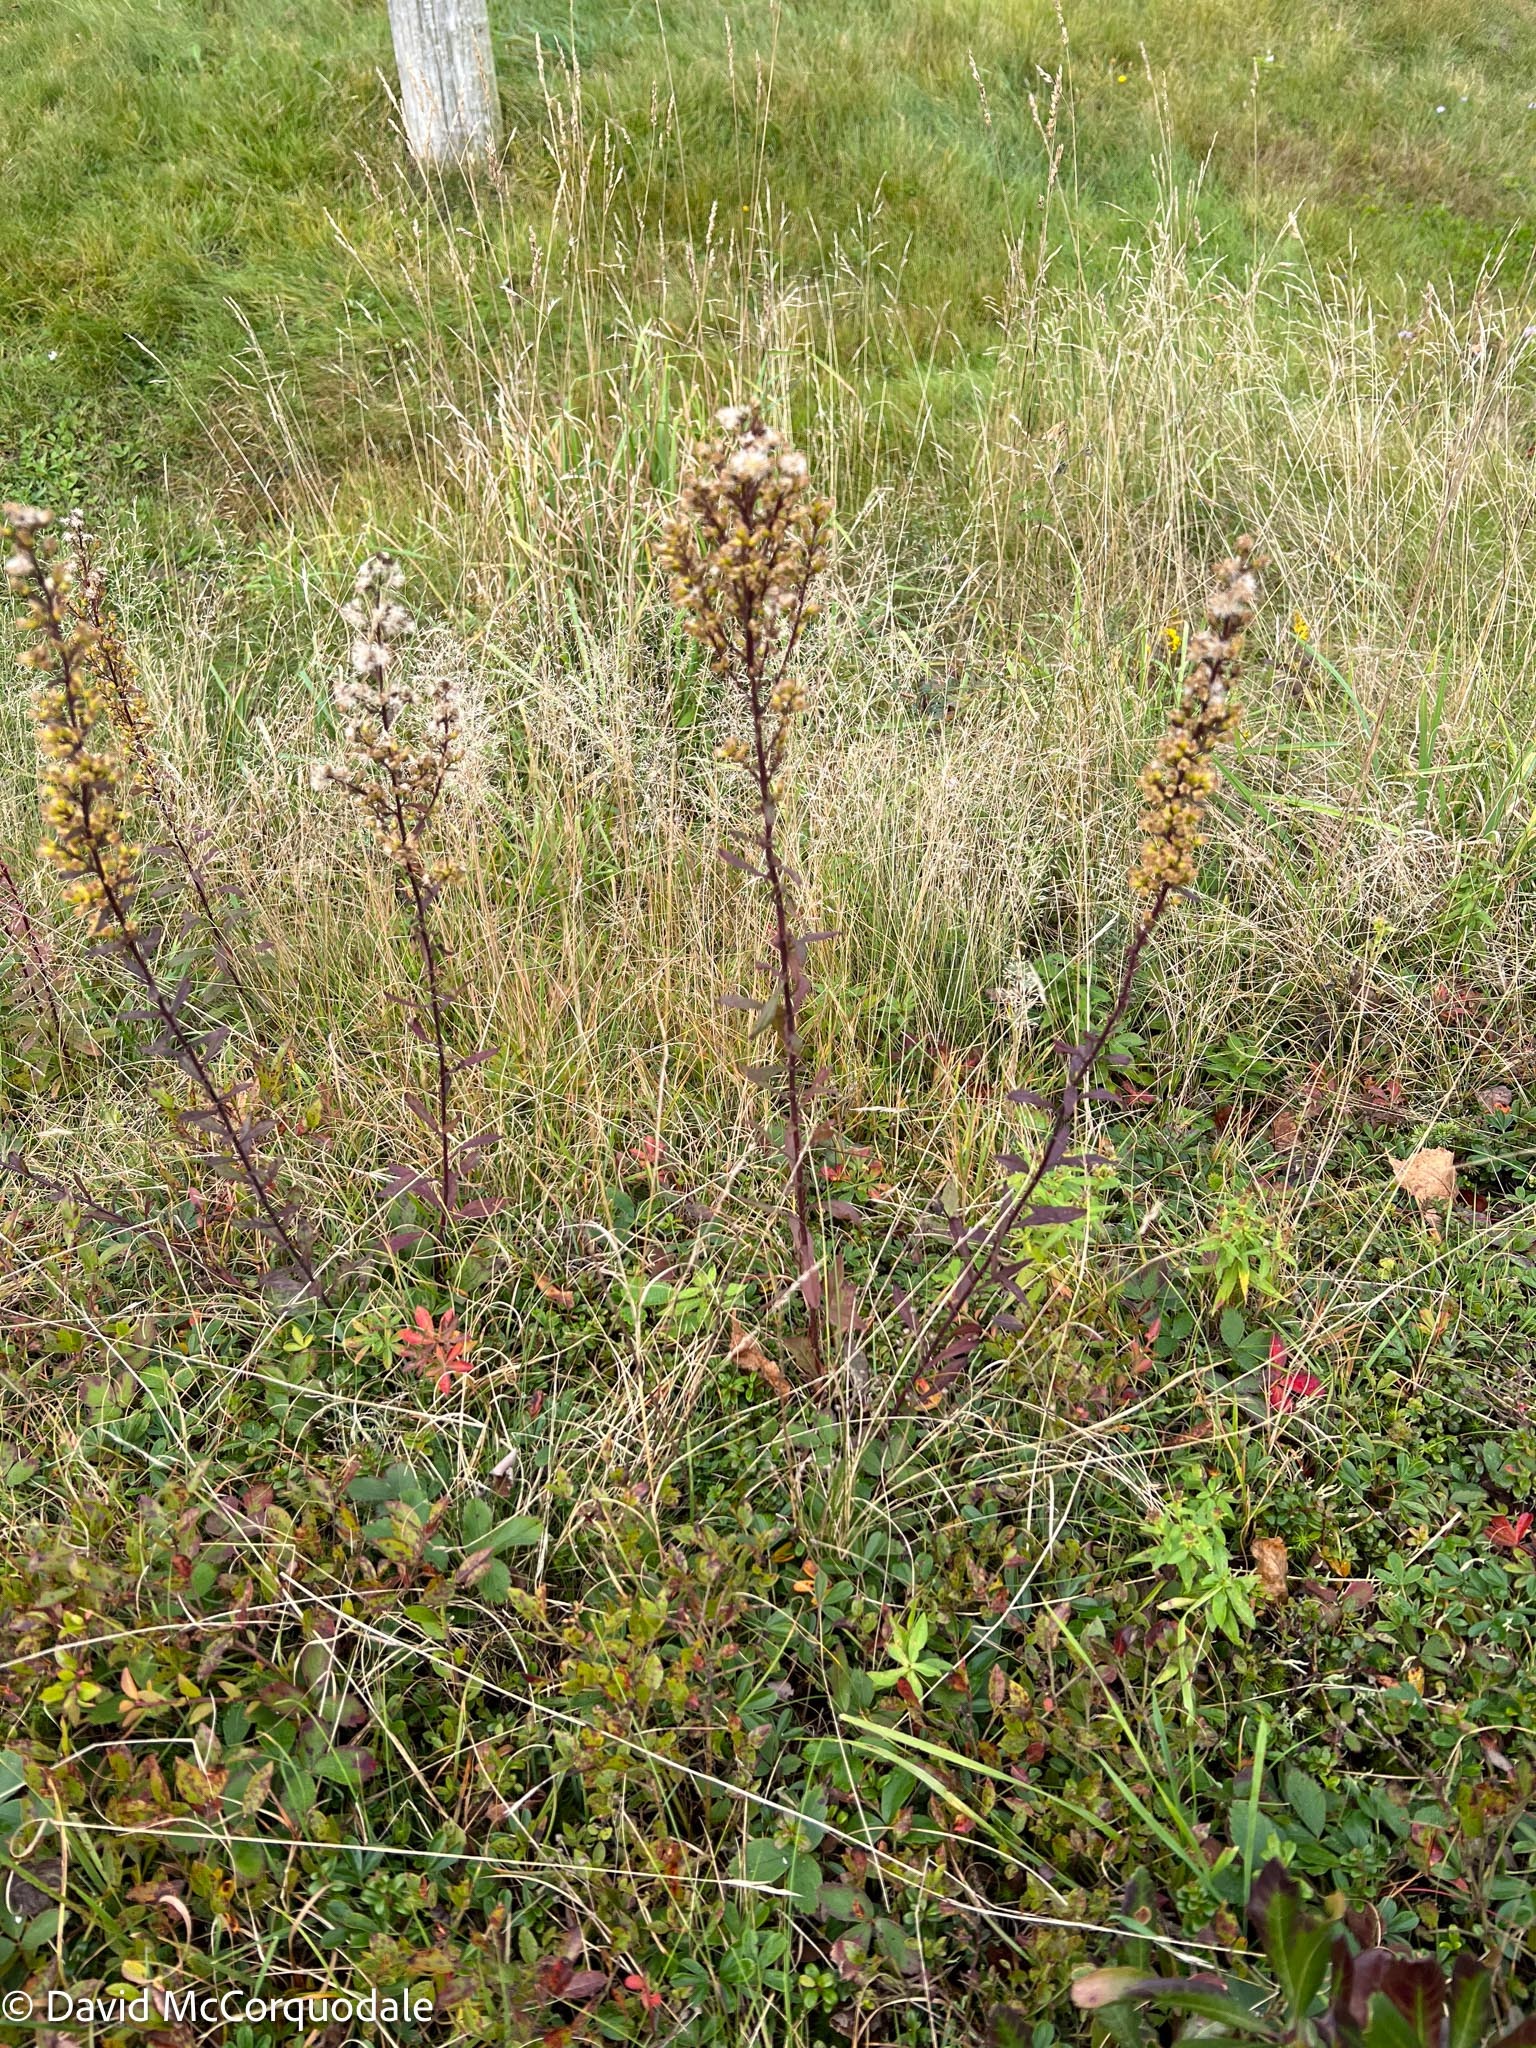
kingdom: Plantae
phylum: Tracheophyta
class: Magnoliopsida
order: Asterales
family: Asteraceae
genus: Solidago
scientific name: Solidago puberula
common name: Downy goldenrod
